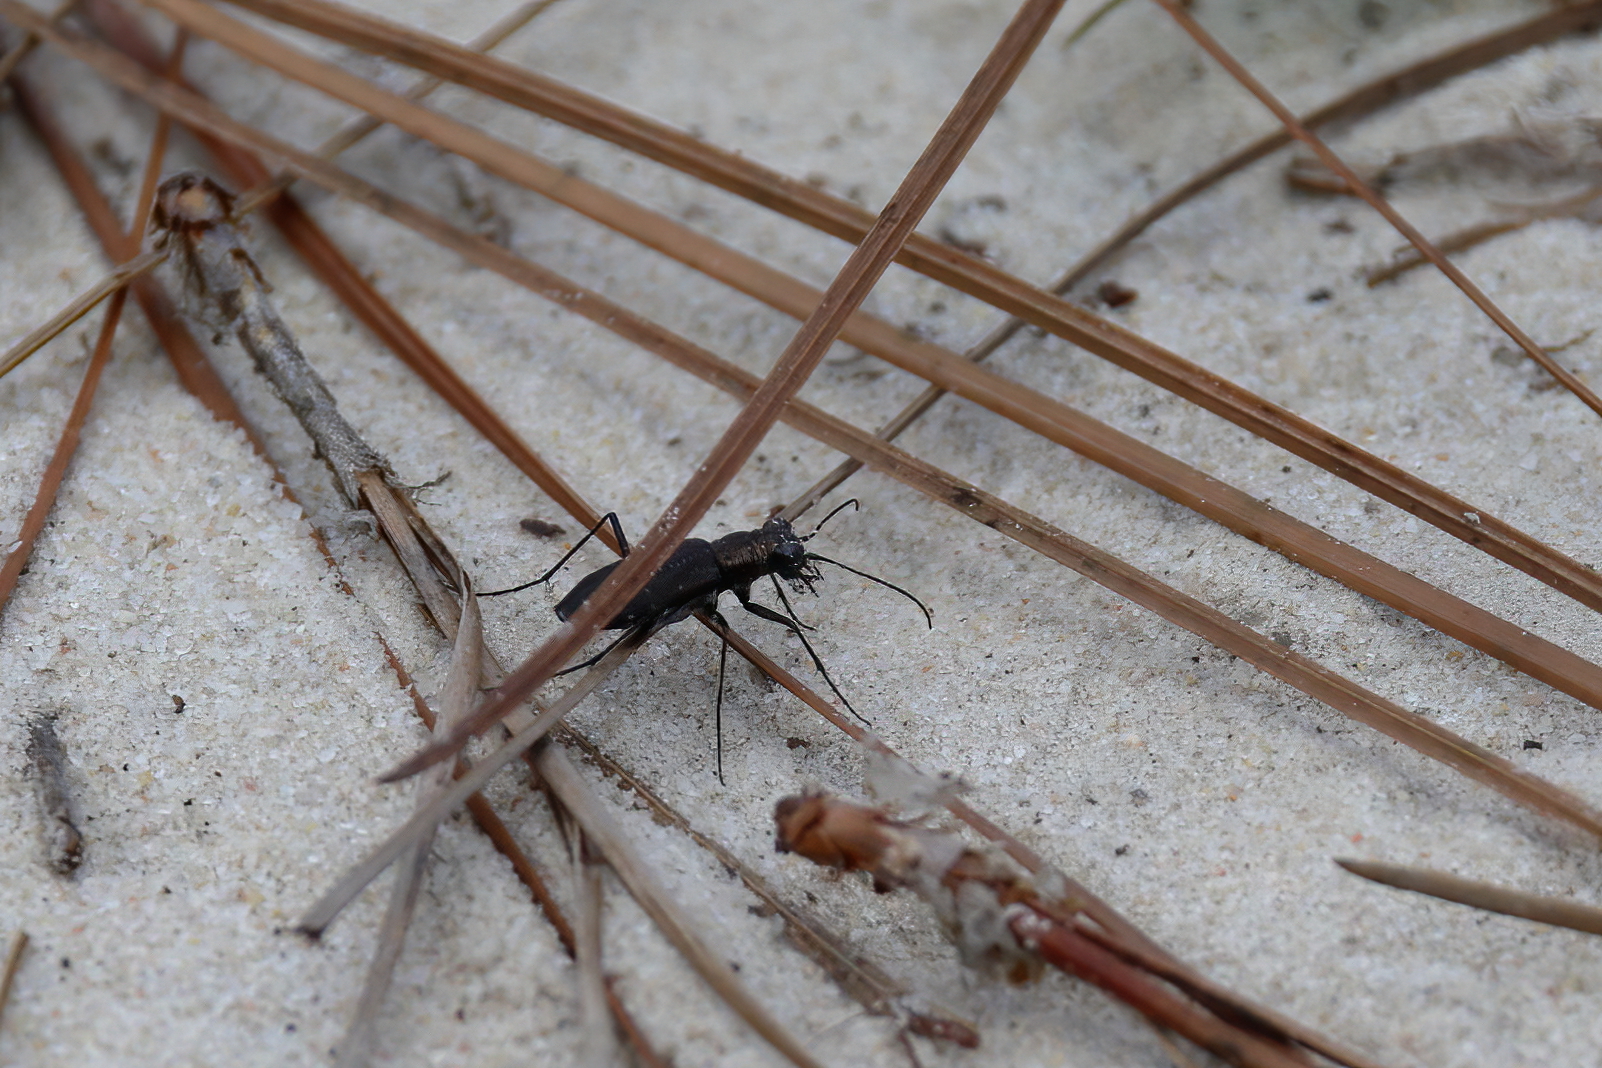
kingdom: Animalia
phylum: Arthropoda
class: Insecta
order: Coleoptera
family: Carabidae
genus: Cicindela
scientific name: Cicindela punctulata
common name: Punctured tiger beetle
